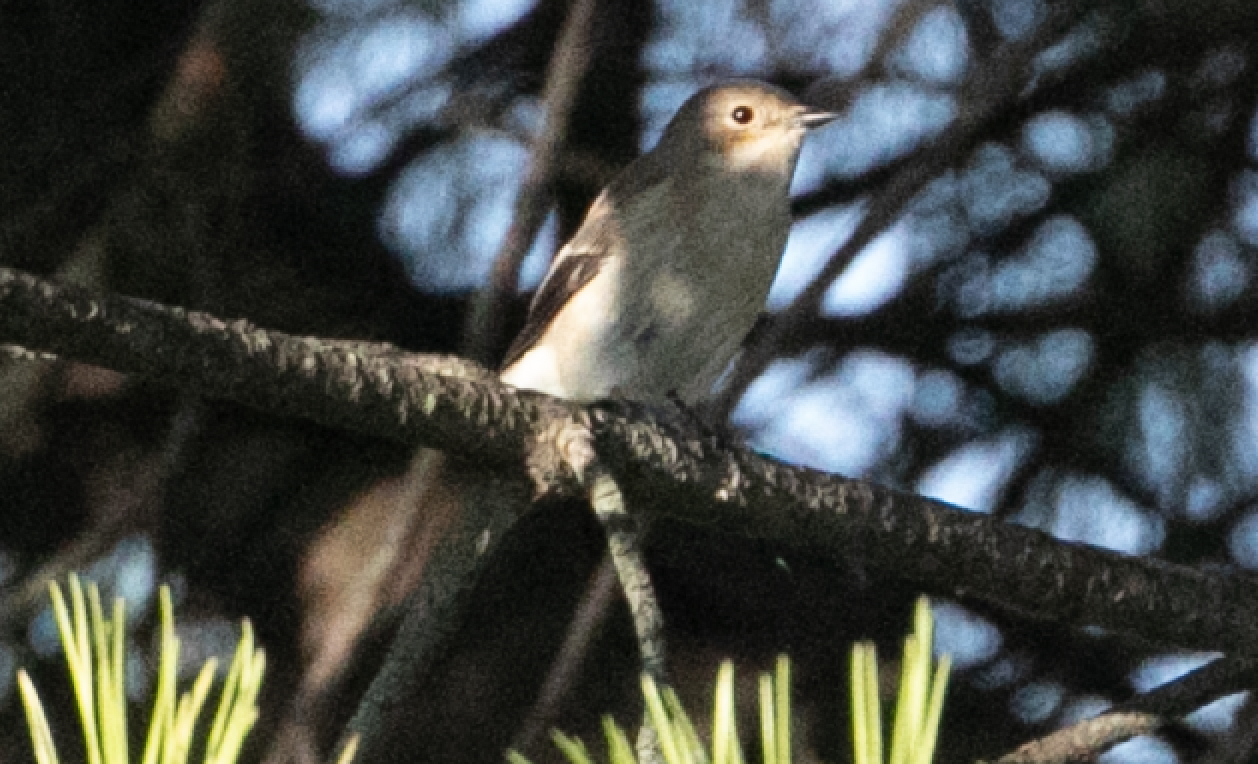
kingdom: Animalia
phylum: Chordata
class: Aves
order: Passeriformes
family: Muscicapidae
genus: Ficedula
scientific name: Ficedula hypoleuca
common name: European pied flycatcher
